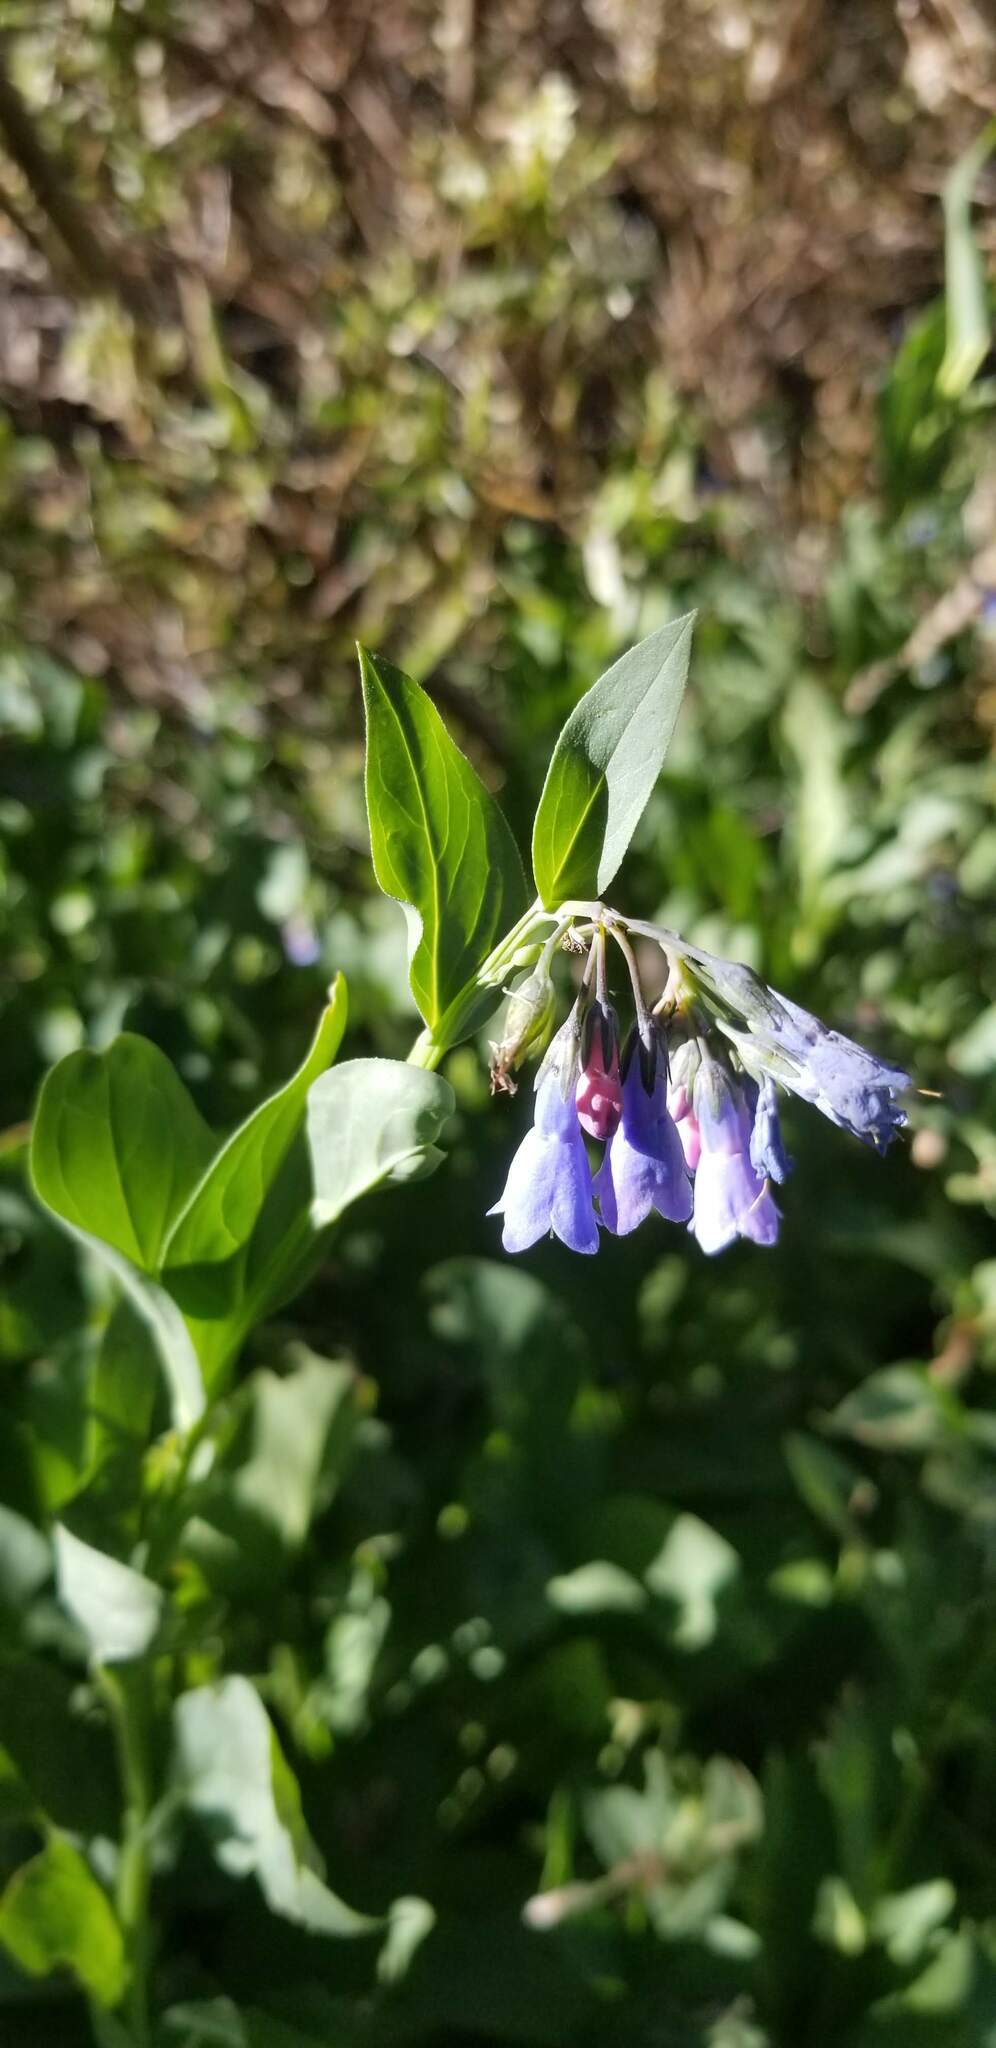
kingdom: Plantae
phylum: Tracheophyta
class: Magnoliopsida
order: Boraginales
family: Boraginaceae
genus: Mertensia
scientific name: Mertensia ciliata
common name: Tall chiming-bells
